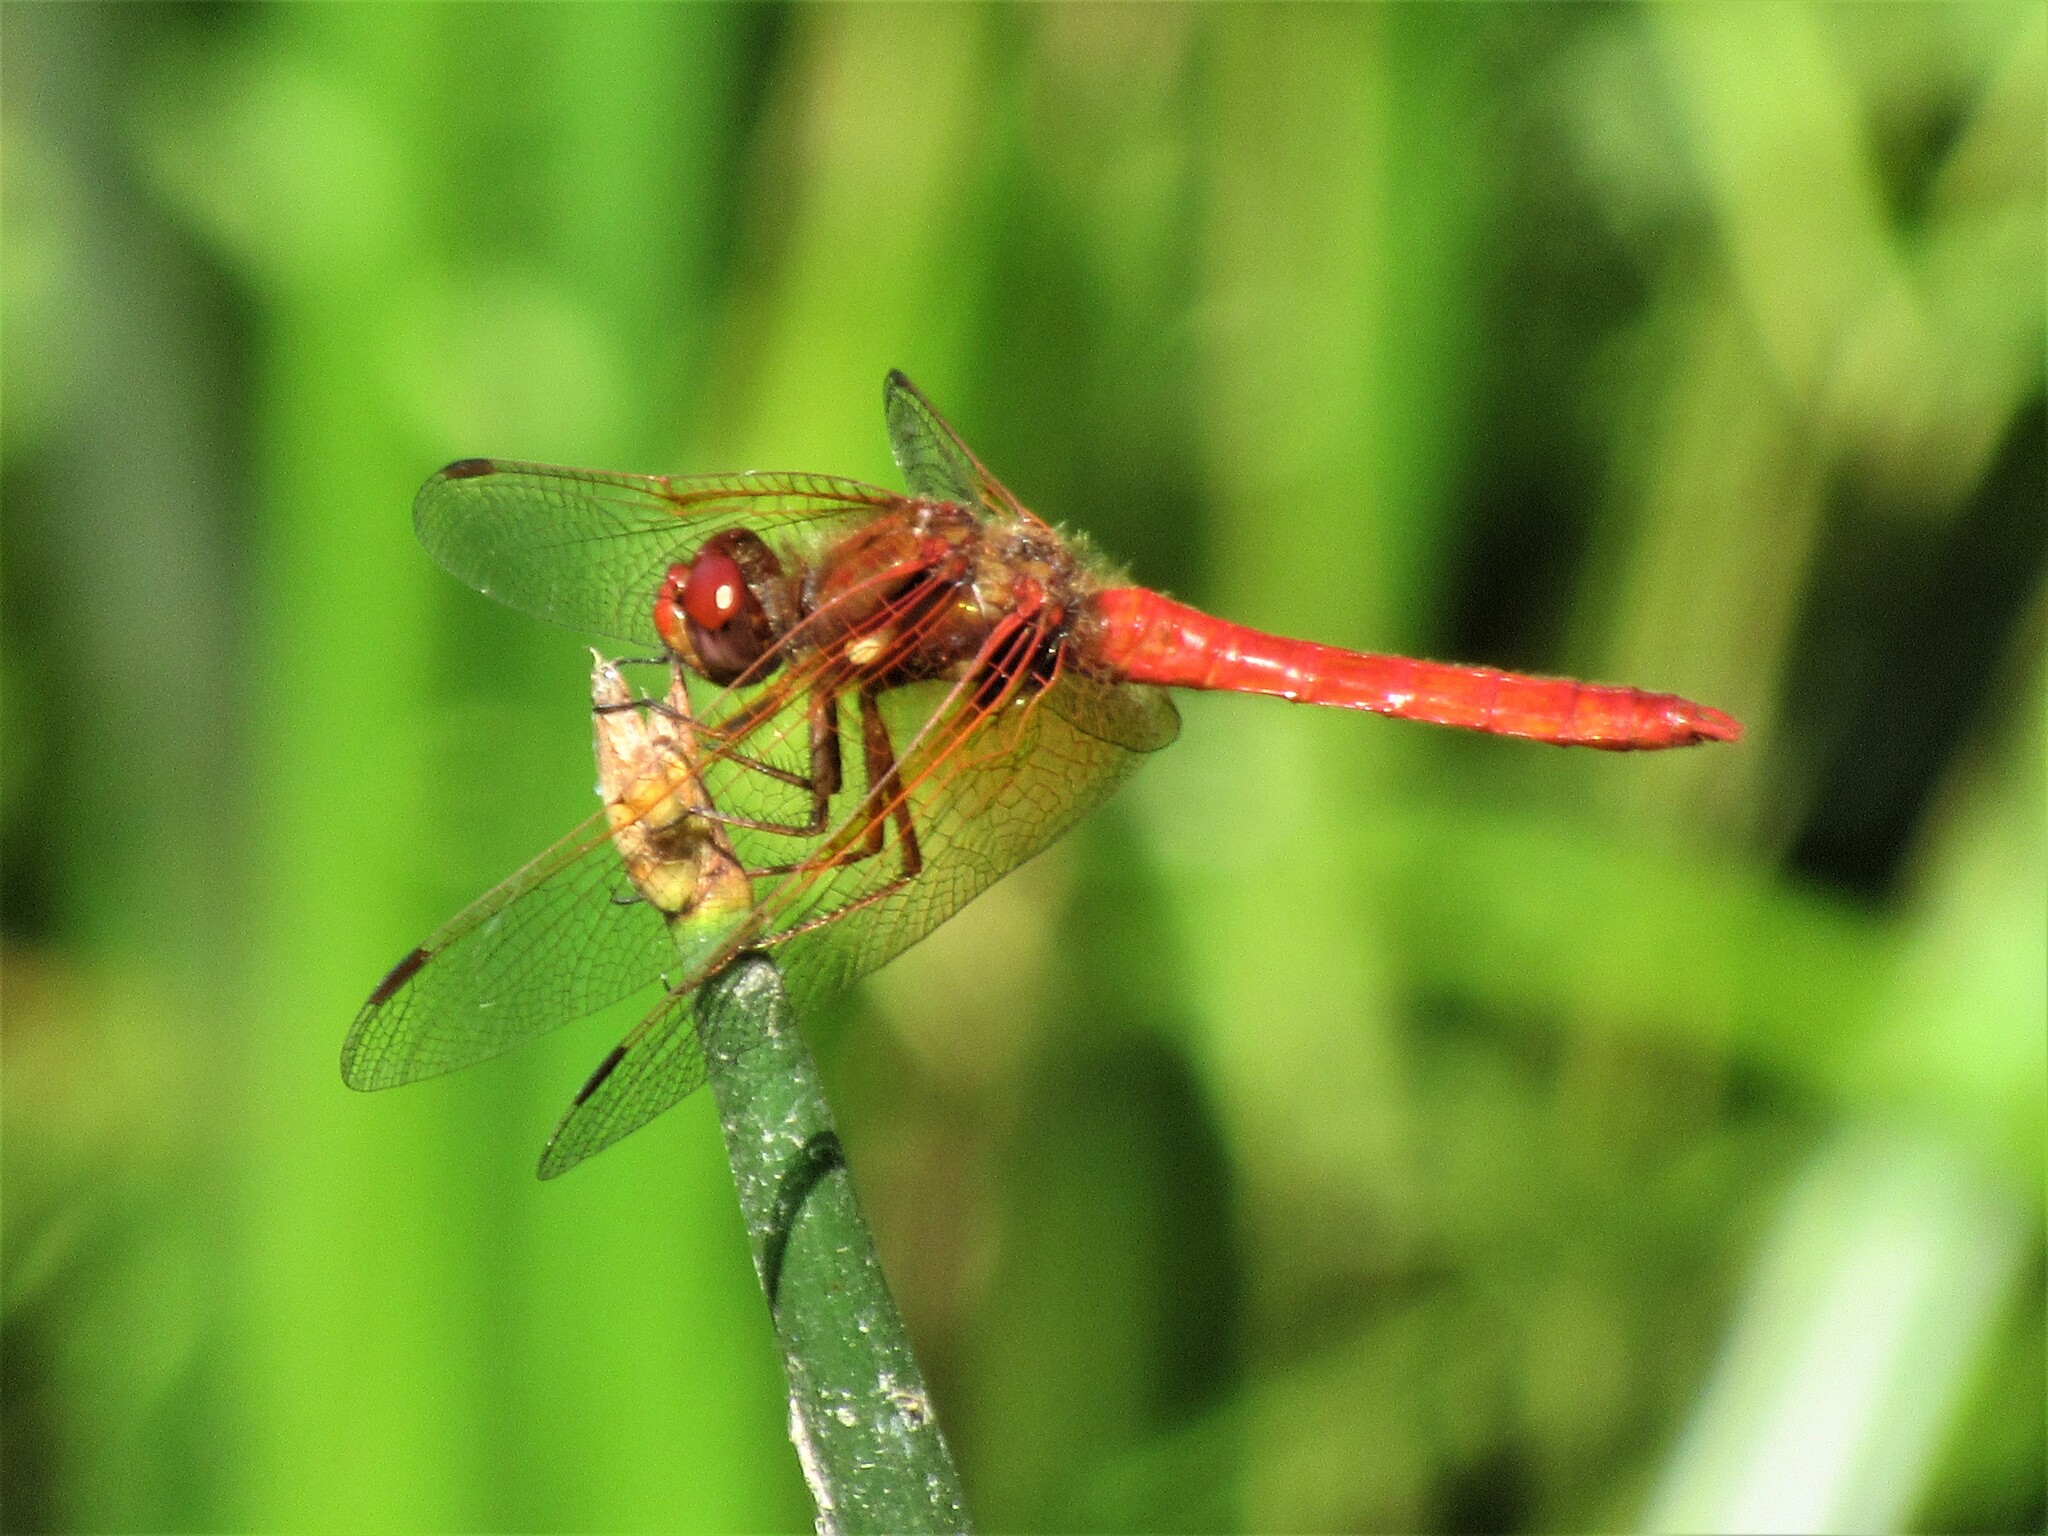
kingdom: Animalia
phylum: Arthropoda
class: Insecta
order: Odonata
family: Libellulidae
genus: Sympetrum
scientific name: Sympetrum illotum
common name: Cardinal meadowhawk
